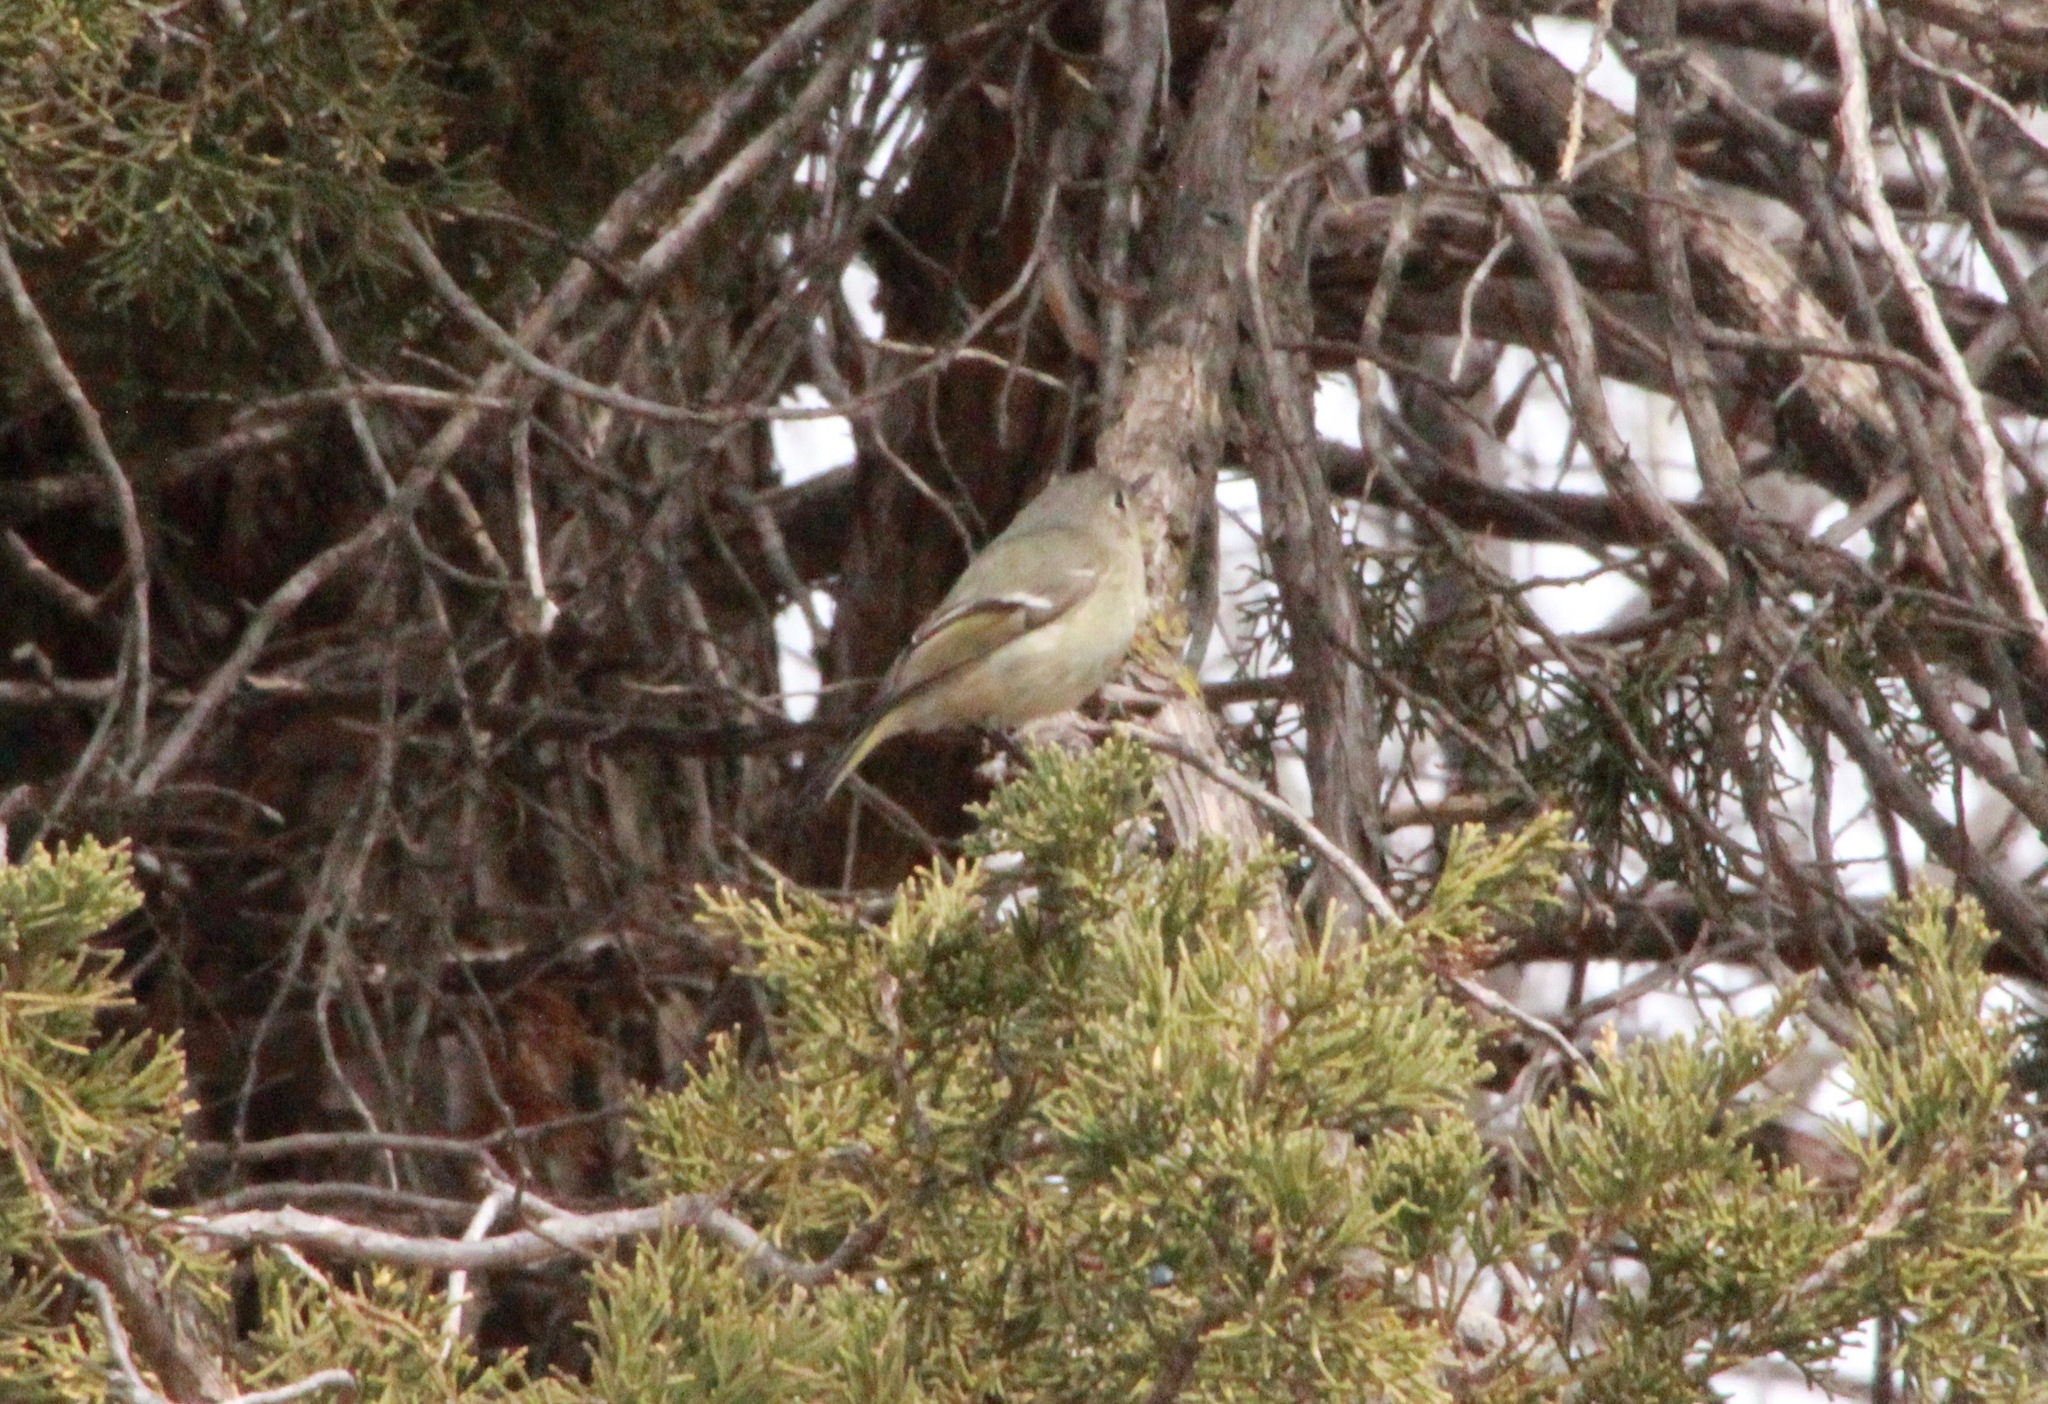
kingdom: Animalia
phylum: Chordata
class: Aves
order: Passeriformes
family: Regulidae
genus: Regulus
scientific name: Regulus calendula
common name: Ruby-crowned kinglet
